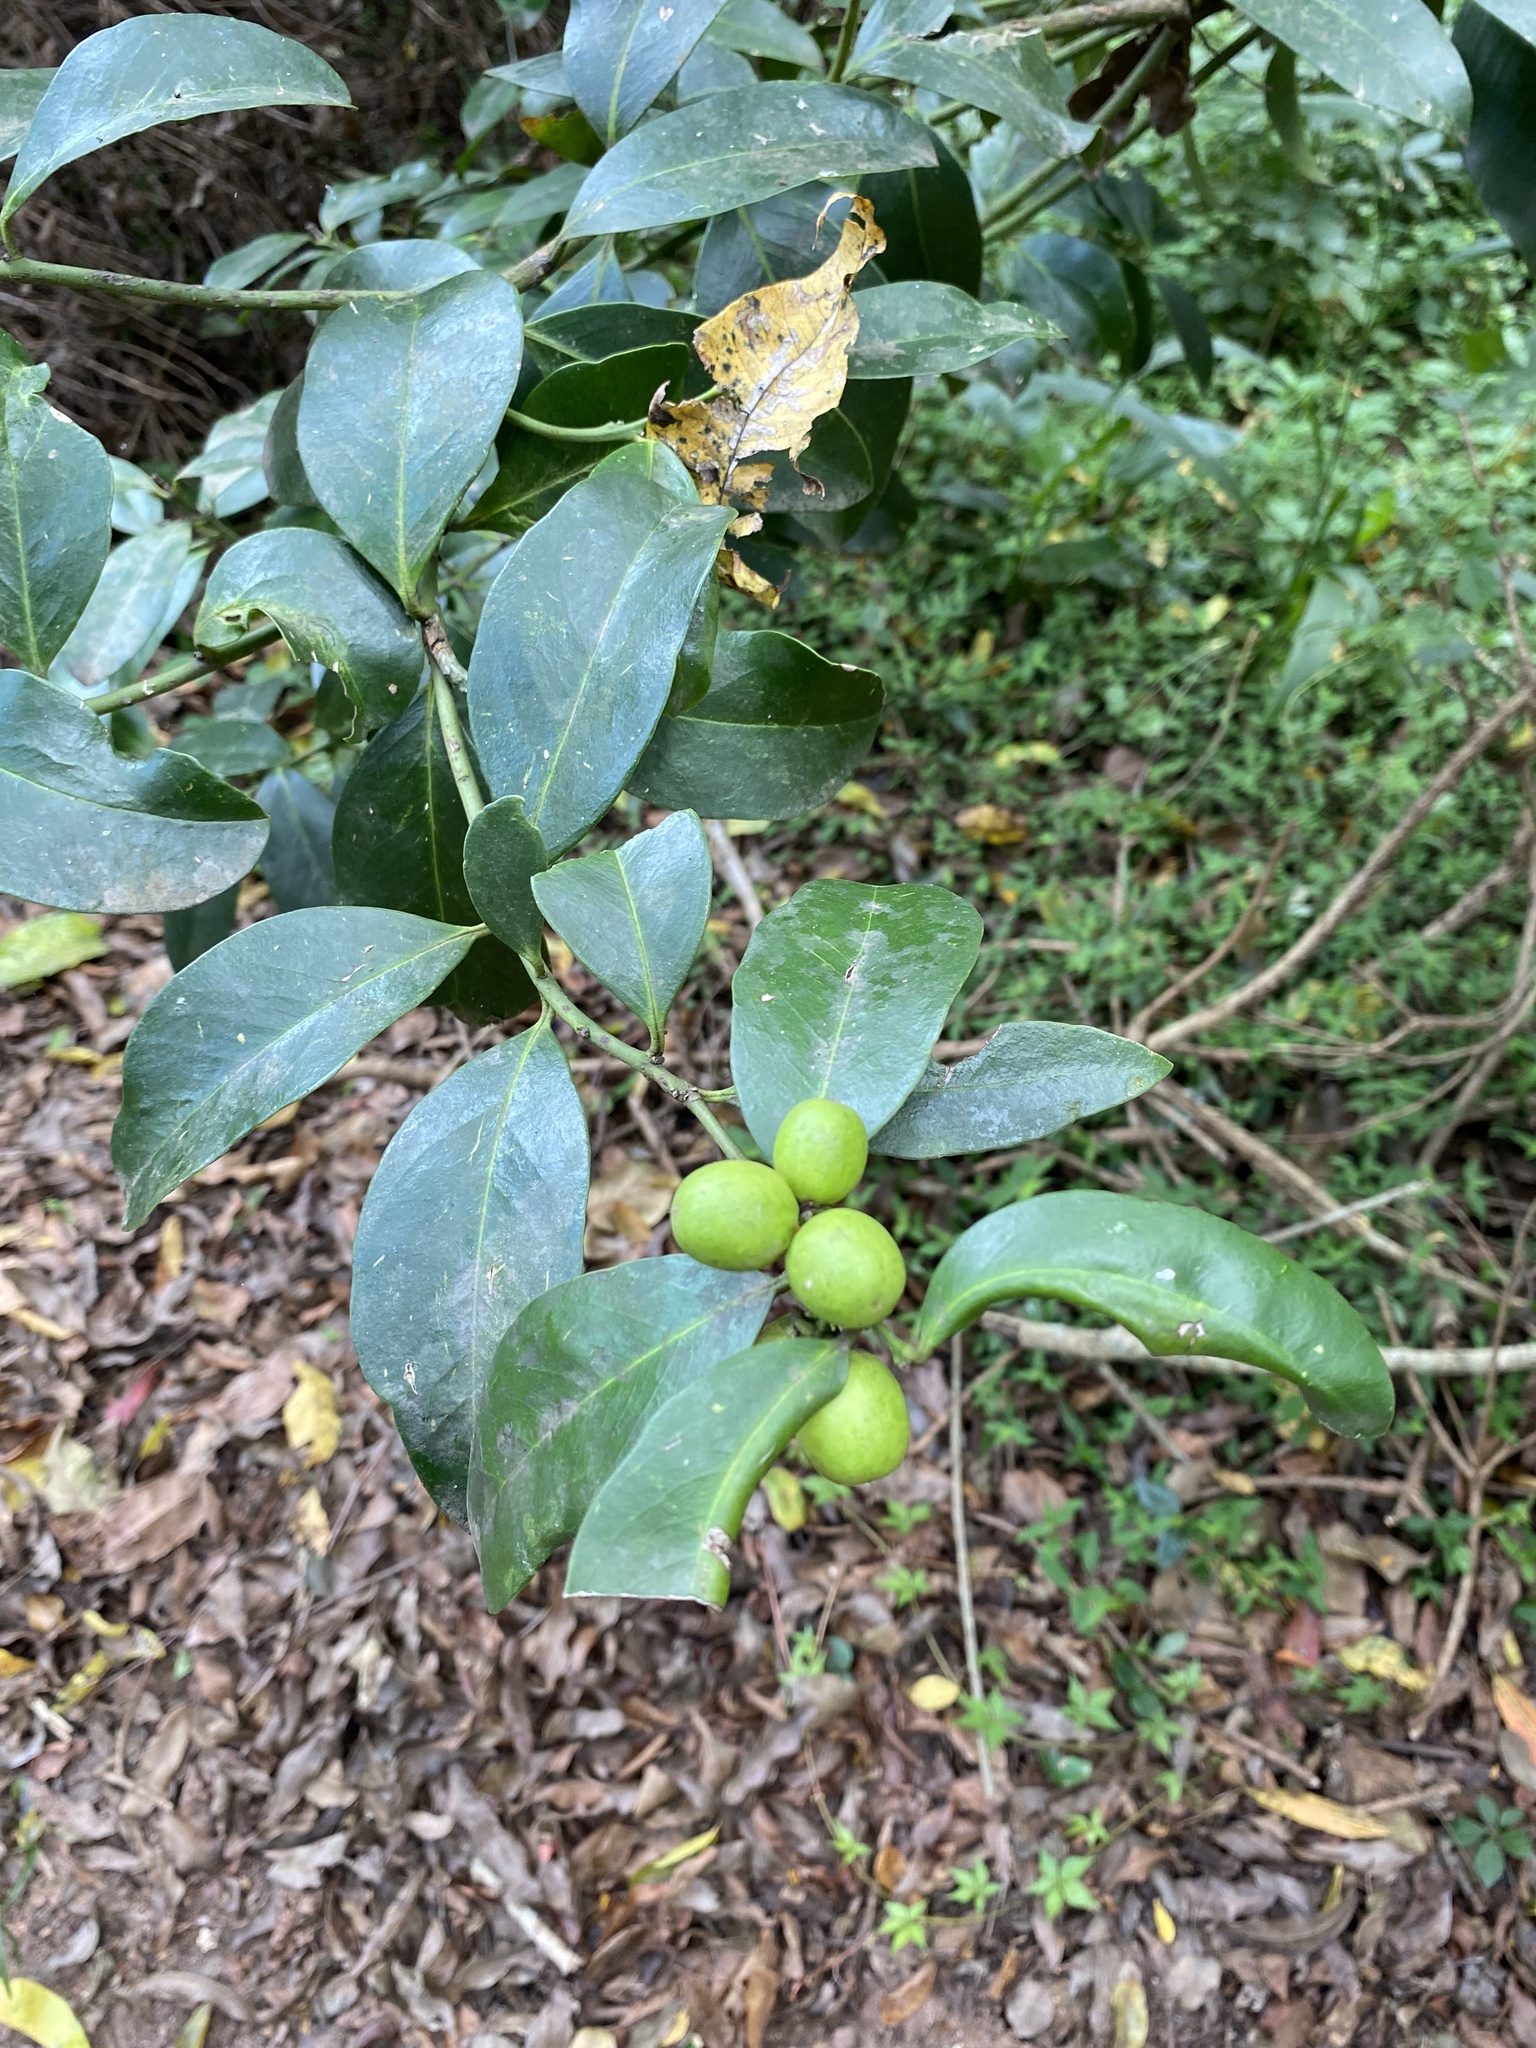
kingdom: Plantae
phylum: Tracheophyta
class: Magnoliopsida
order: Gentianales
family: Apocynaceae
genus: Acokanthera
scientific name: Acokanthera oppositifolia
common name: Bushman's-poison
